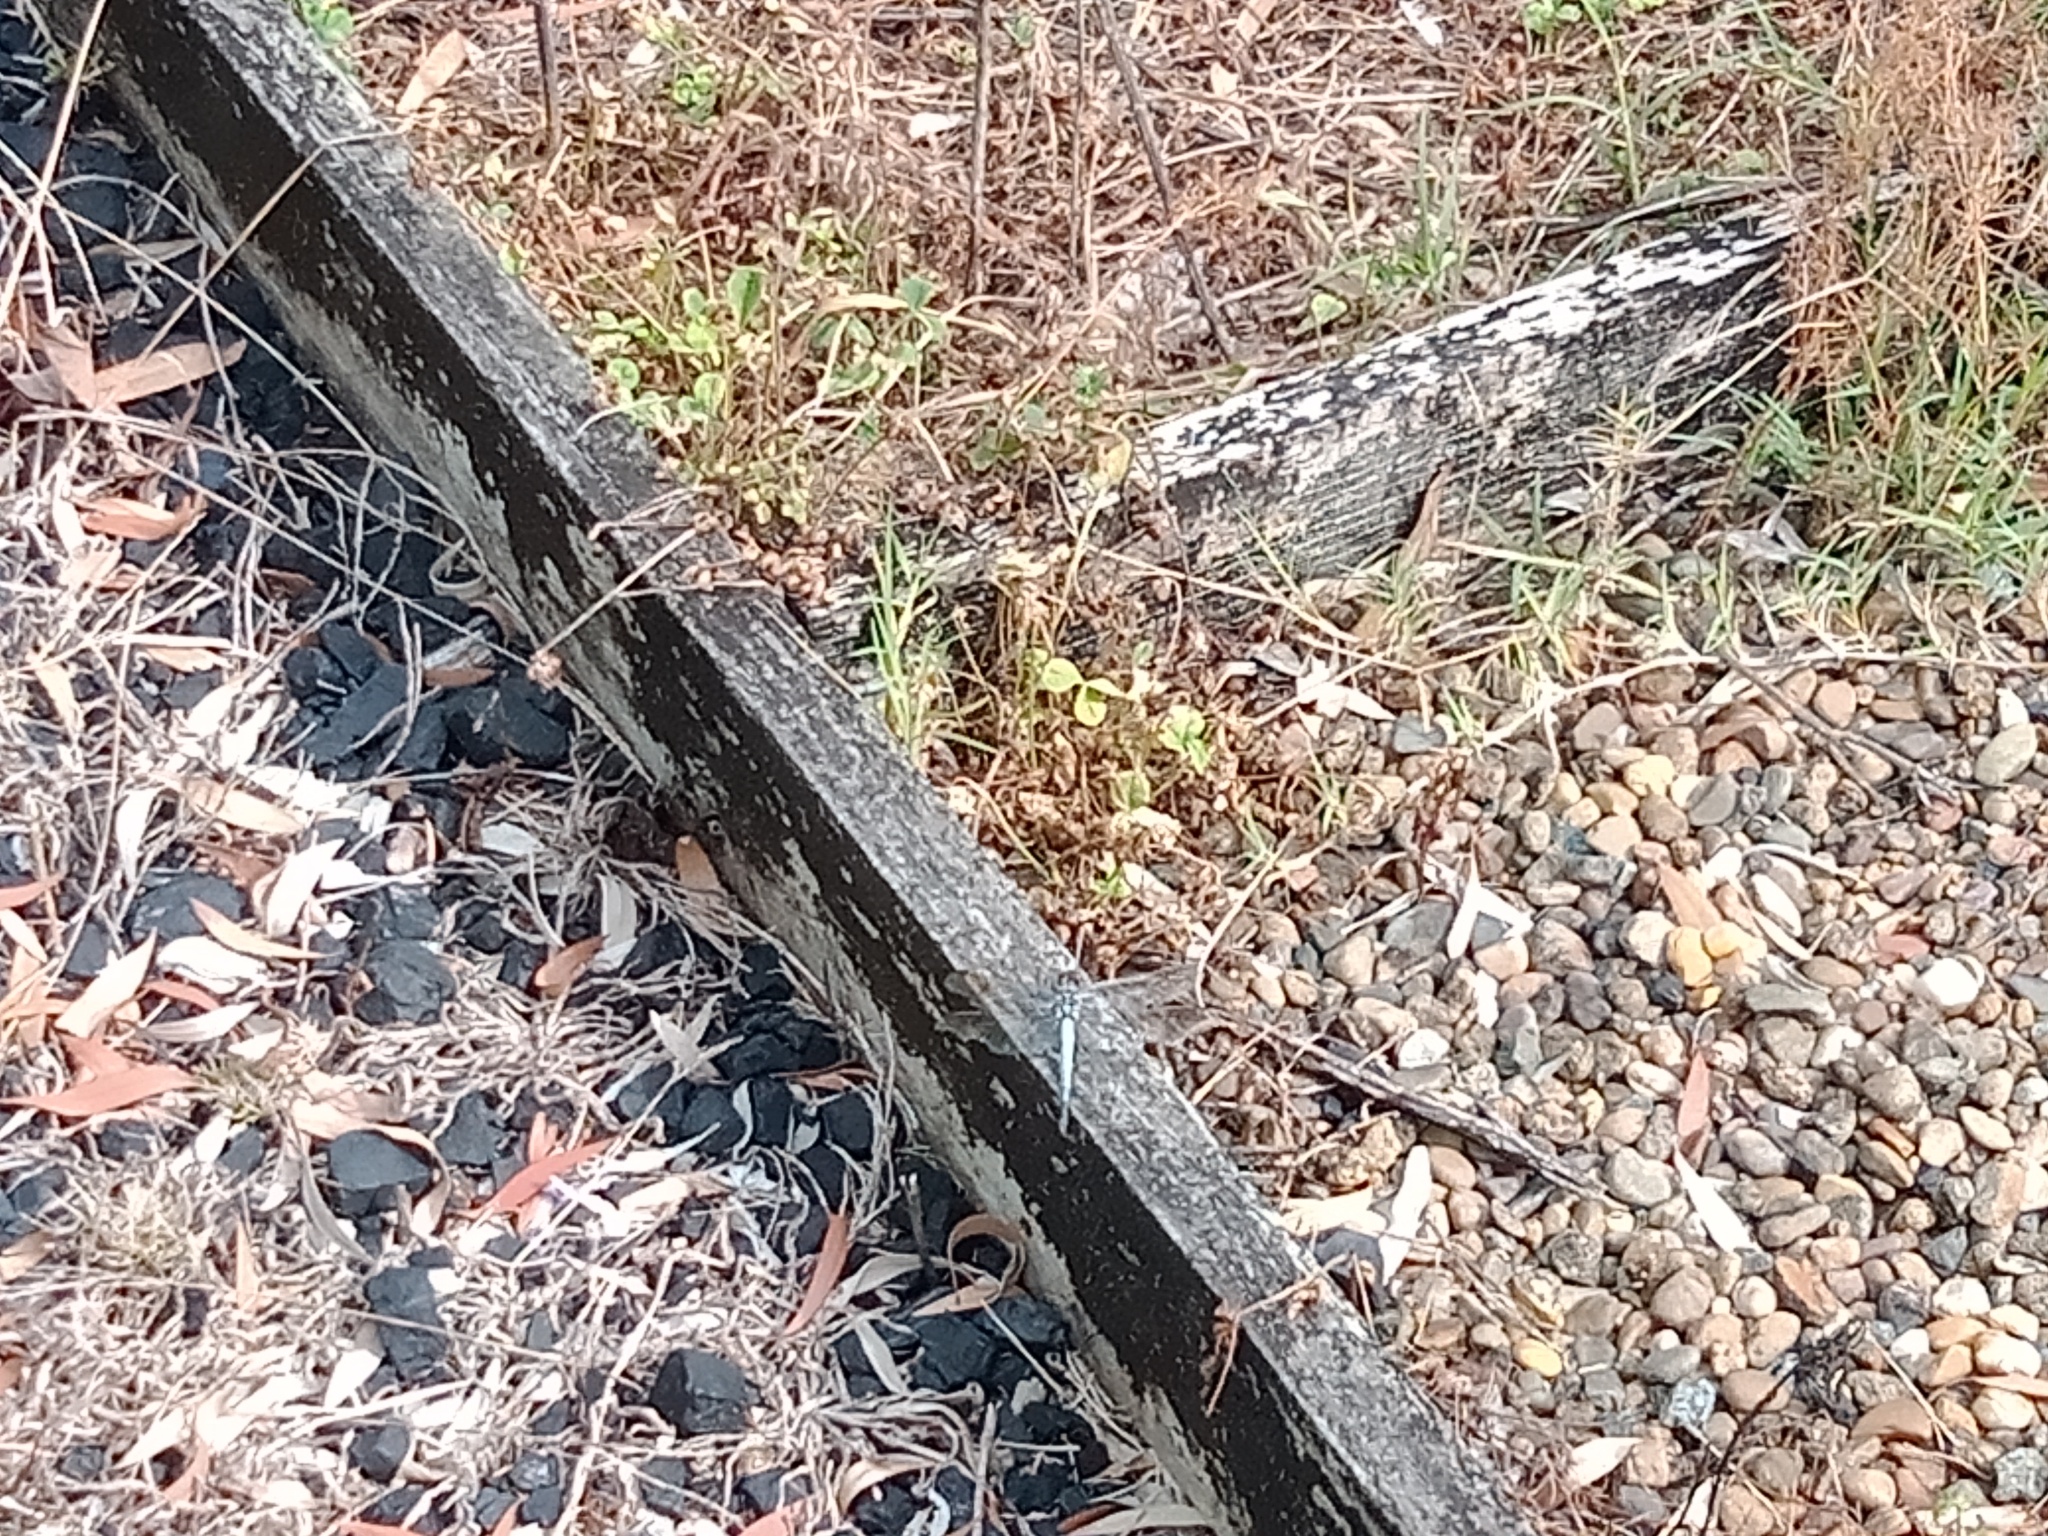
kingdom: Animalia
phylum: Arthropoda
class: Insecta
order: Odonata
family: Libellulidae
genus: Orthetrum
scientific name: Orthetrum caledonicum
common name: Blue skimmer
